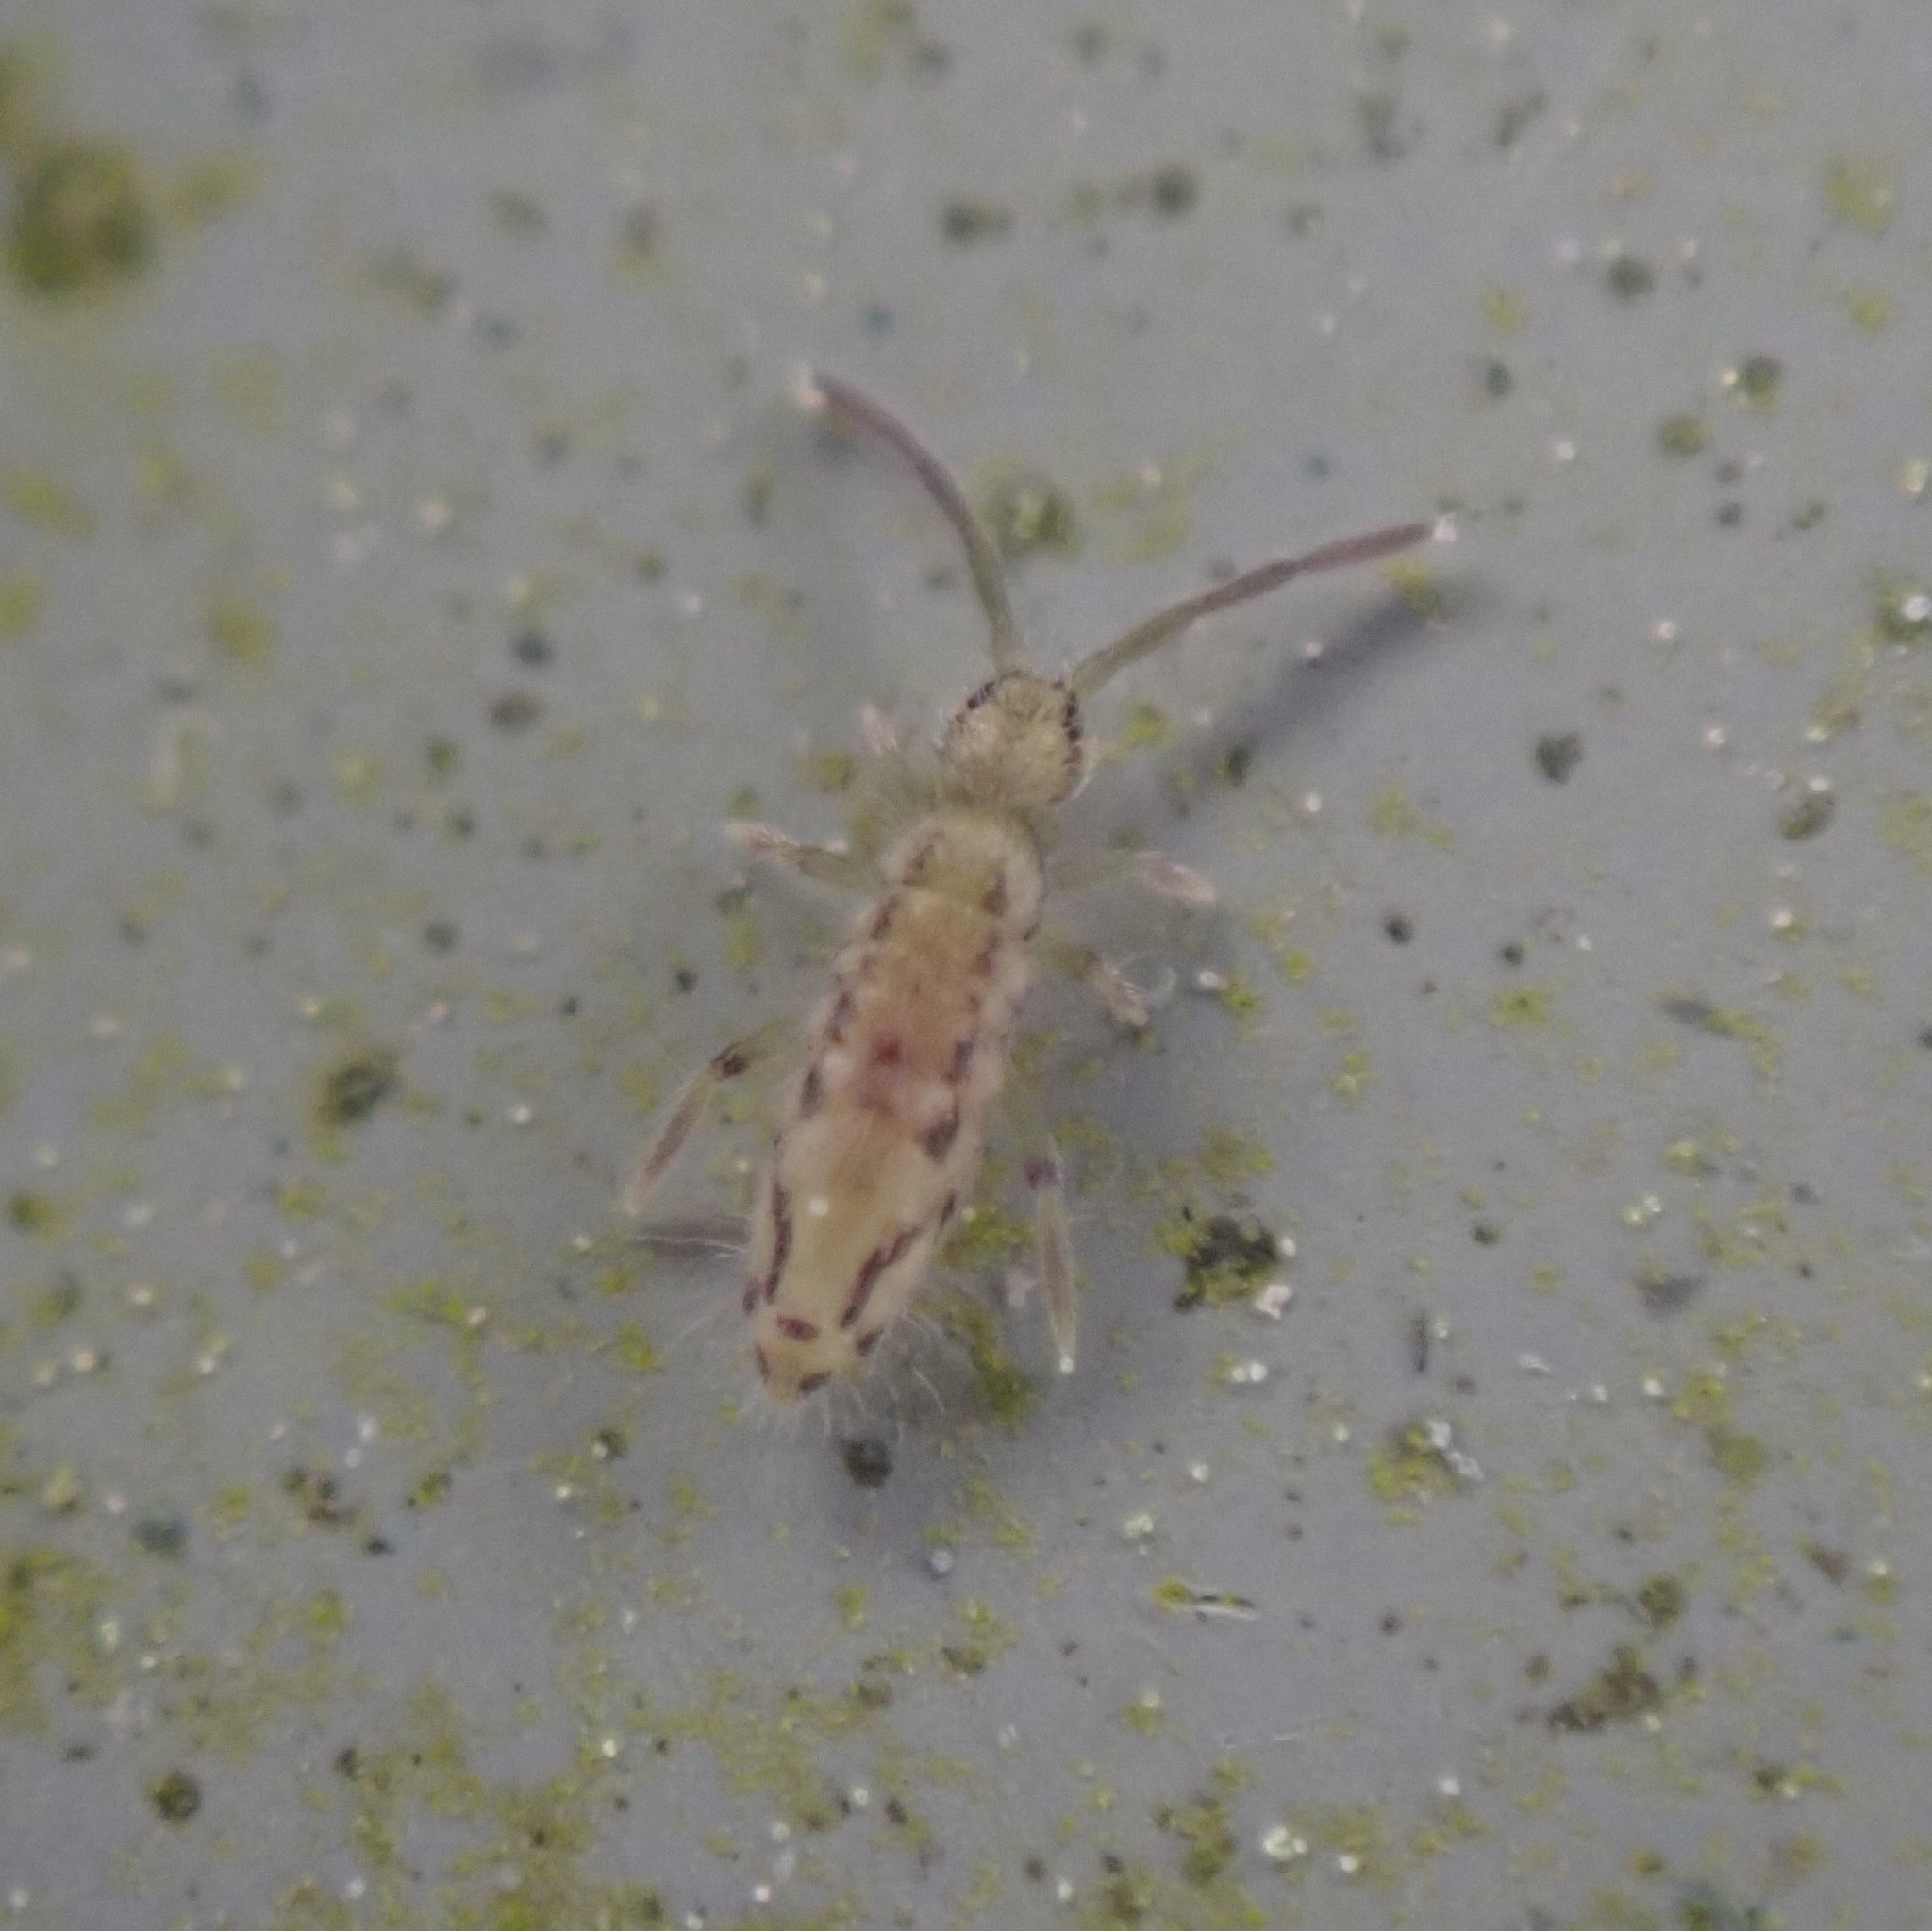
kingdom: Animalia
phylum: Arthropoda
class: Collembola
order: Entomobryomorpha
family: Entomobryidae
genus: Entomobrya
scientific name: Entomobrya katzi
